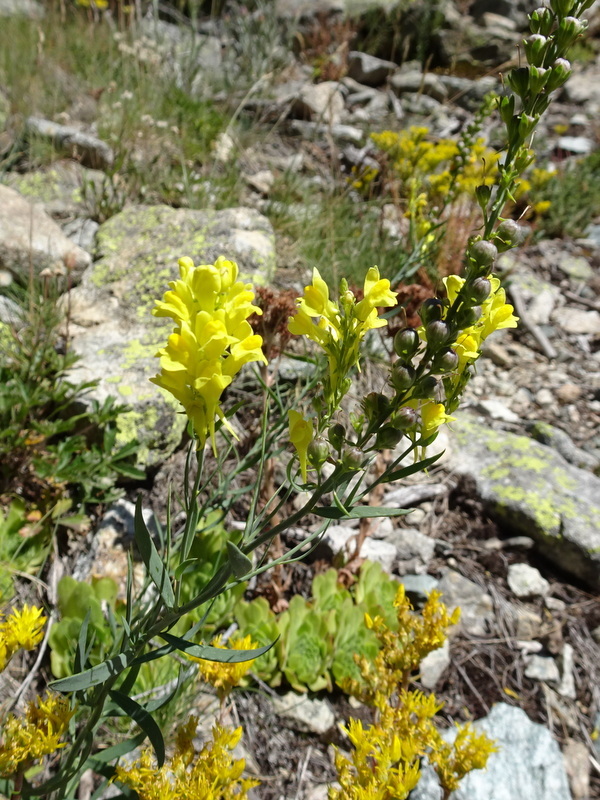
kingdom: Plantae
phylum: Tracheophyta
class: Magnoliopsida
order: Lamiales
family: Plantaginaceae
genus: Linaria
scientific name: Linaria angustissima
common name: Italian toadflax
